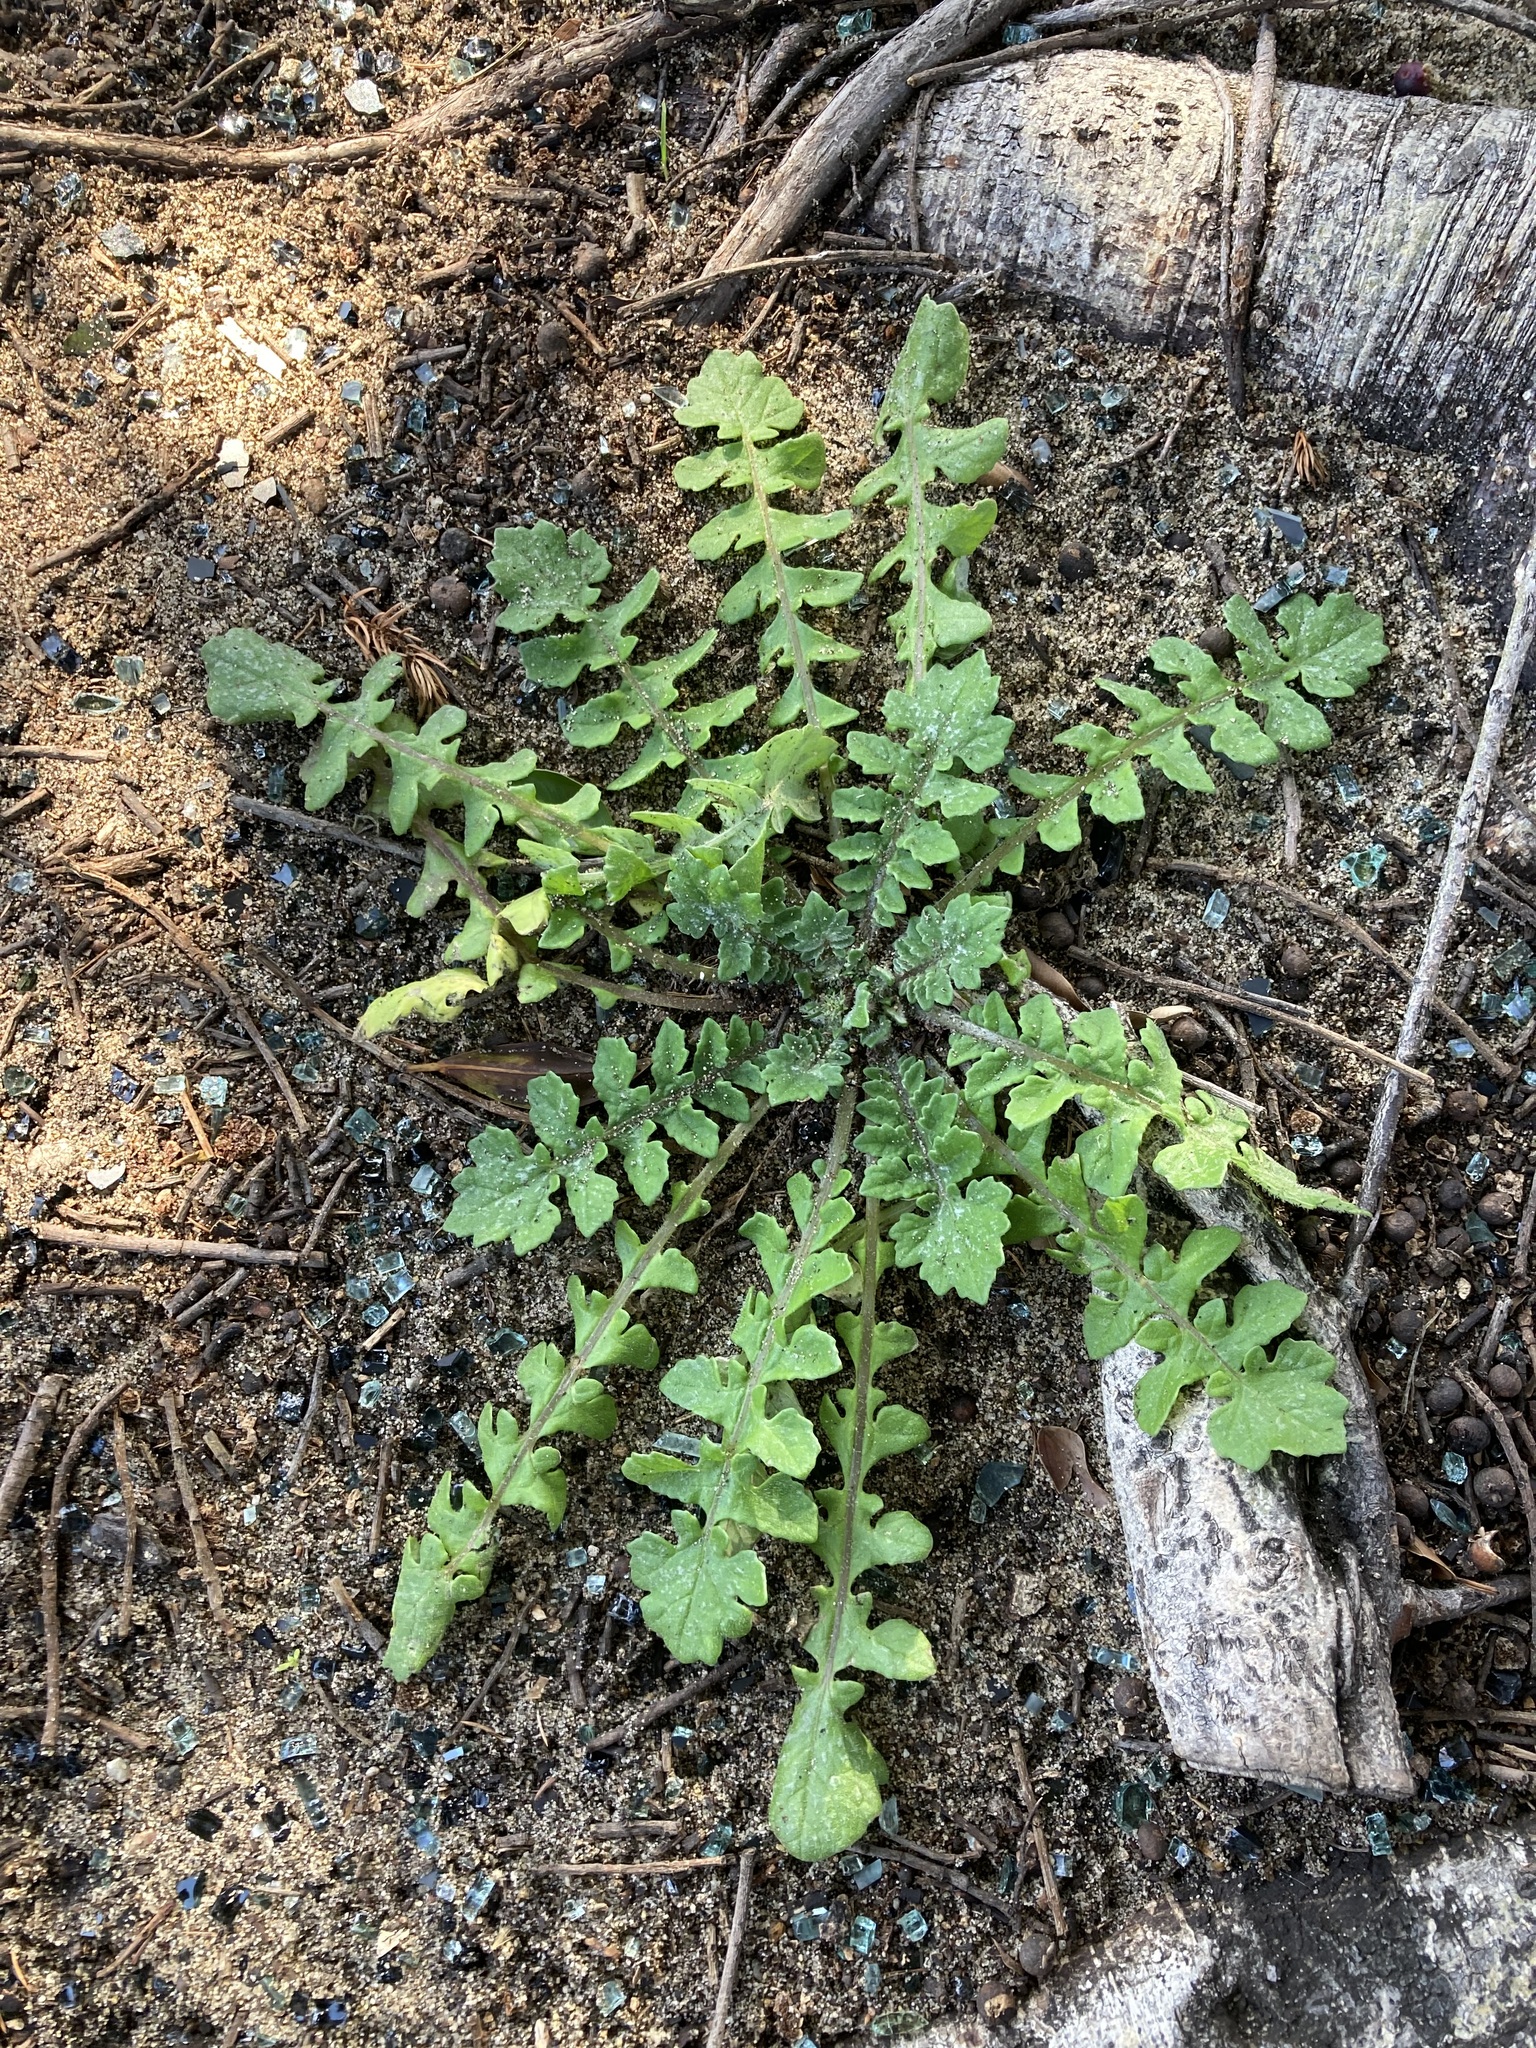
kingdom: Plantae
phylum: Tracheophyta
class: Magnoliopsida
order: Asterales
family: Asteraceae
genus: Arctotheca
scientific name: Arctotheca calendula
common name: Capeweed
